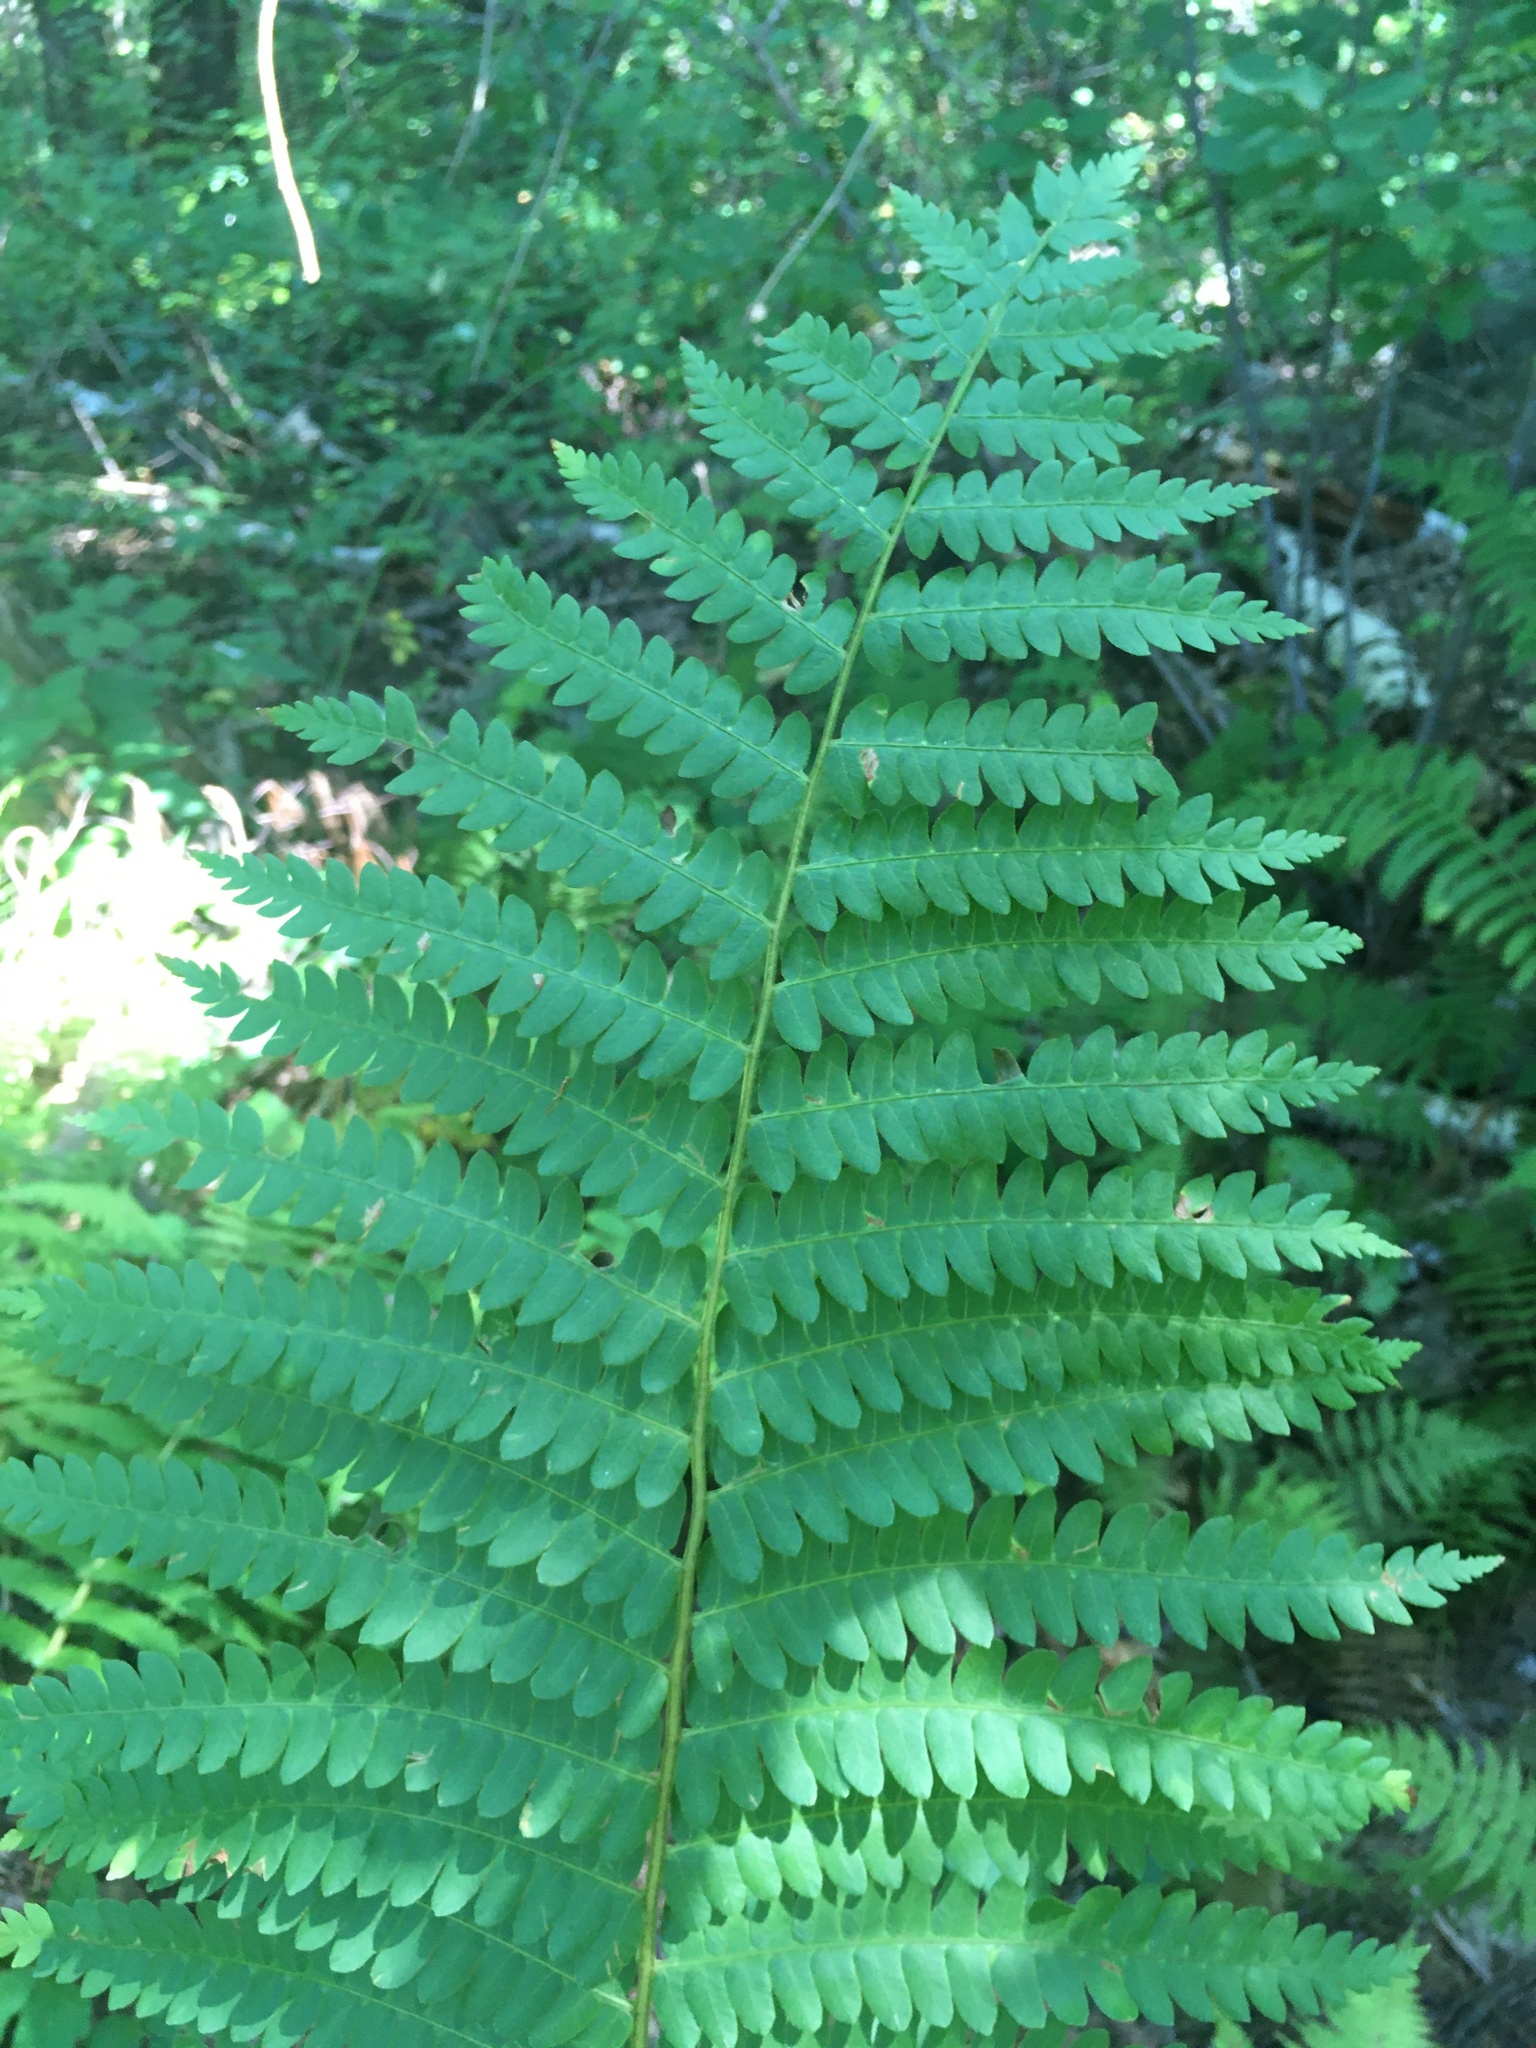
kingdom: Plantae
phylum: Tracheophyta
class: Polypodiopsida
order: Osmundales
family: Osmundaceae
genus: Osmundastrum
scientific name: Osmundastrum cinnamomeum
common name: Cinnamon fern
